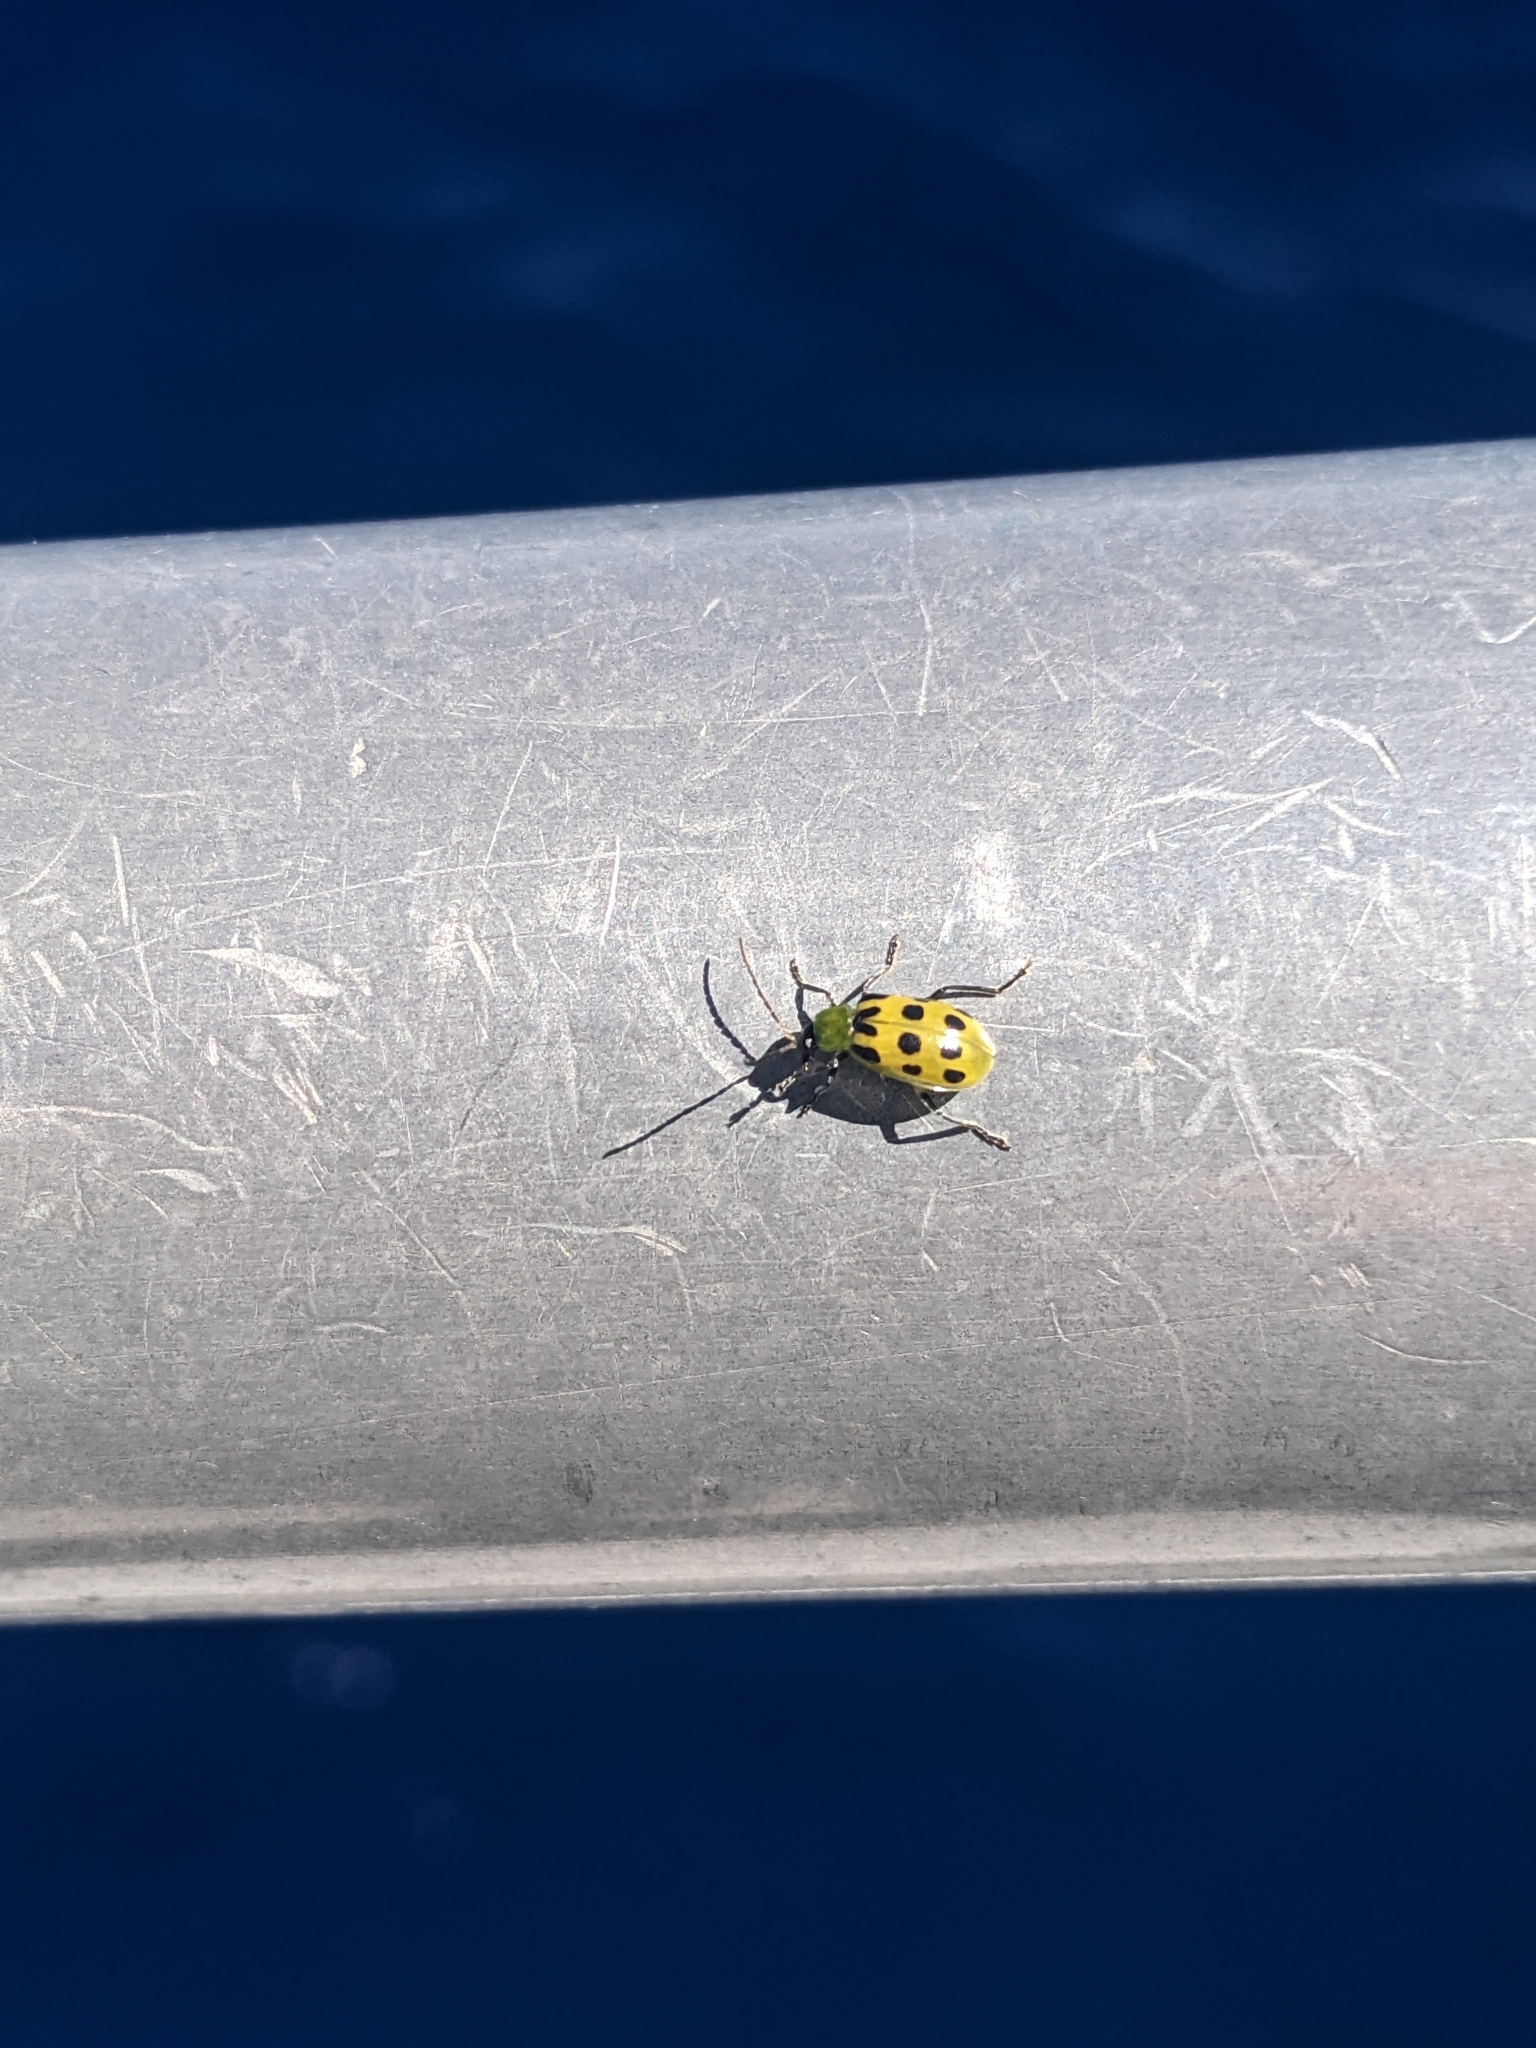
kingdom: Animalia
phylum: Arthropoda
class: Insecta
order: Coleoptera
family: Chrysomelidae
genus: Diabrotica
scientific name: Diabrotica undecimpunctata
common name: Spotted cucumber beetle
